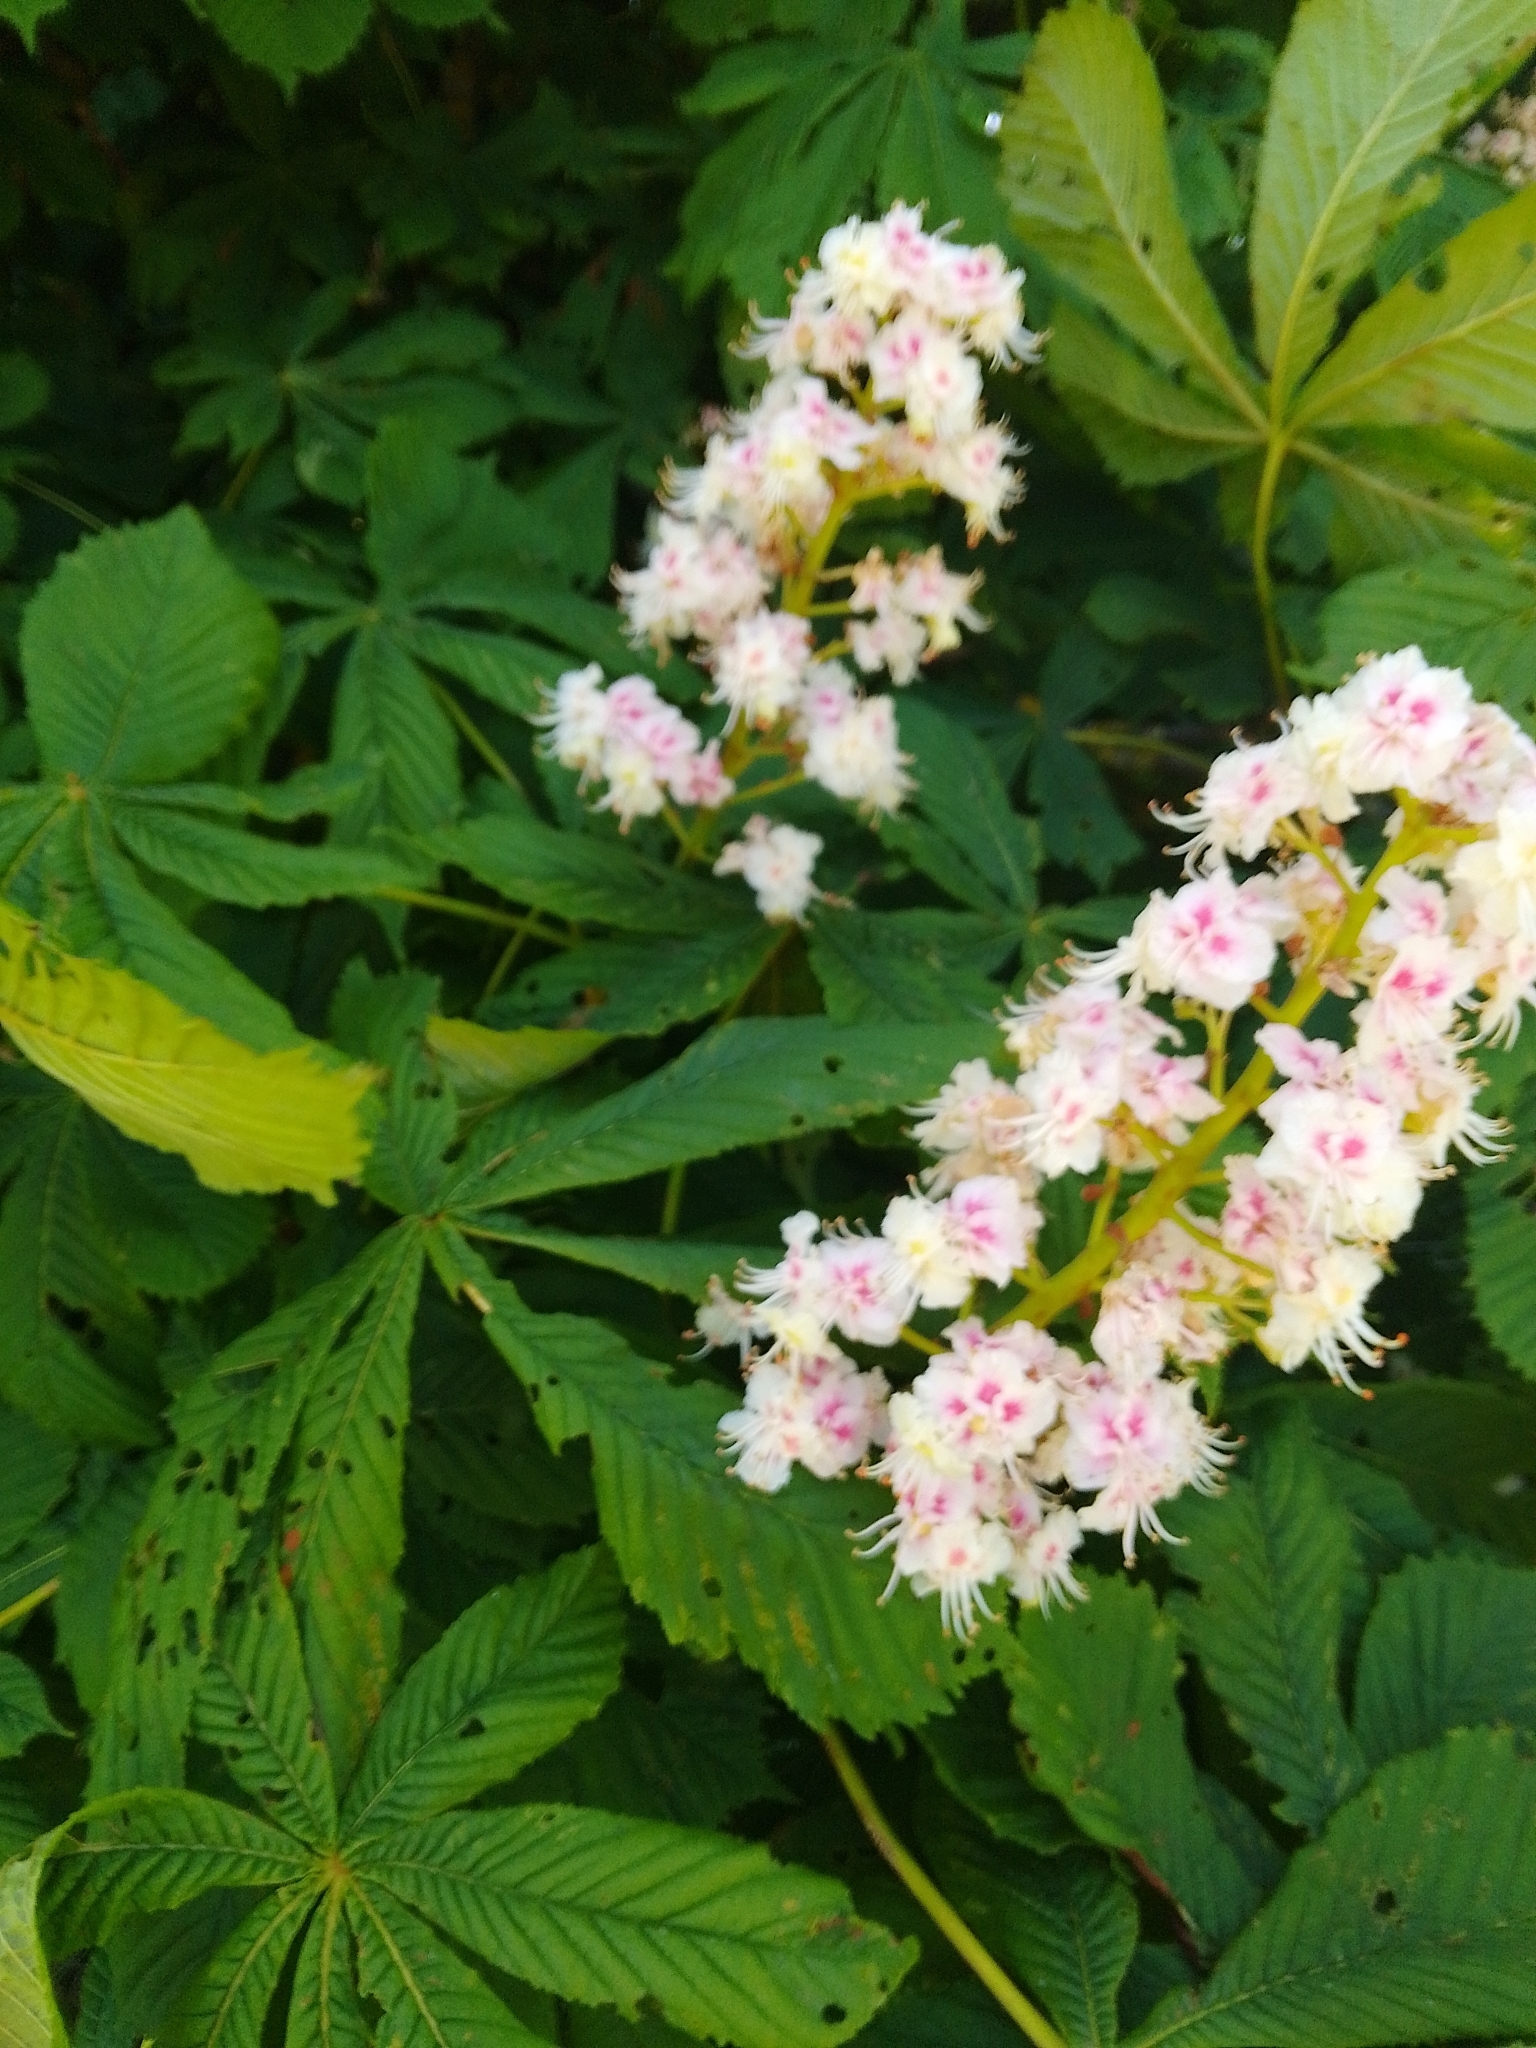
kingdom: Plantae
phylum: Tracheophyta
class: Magnoliopsida
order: Sapindales
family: Sapindaceae
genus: Aesculus
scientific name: Aesculus hippocastanum
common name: Horse-chestnut
